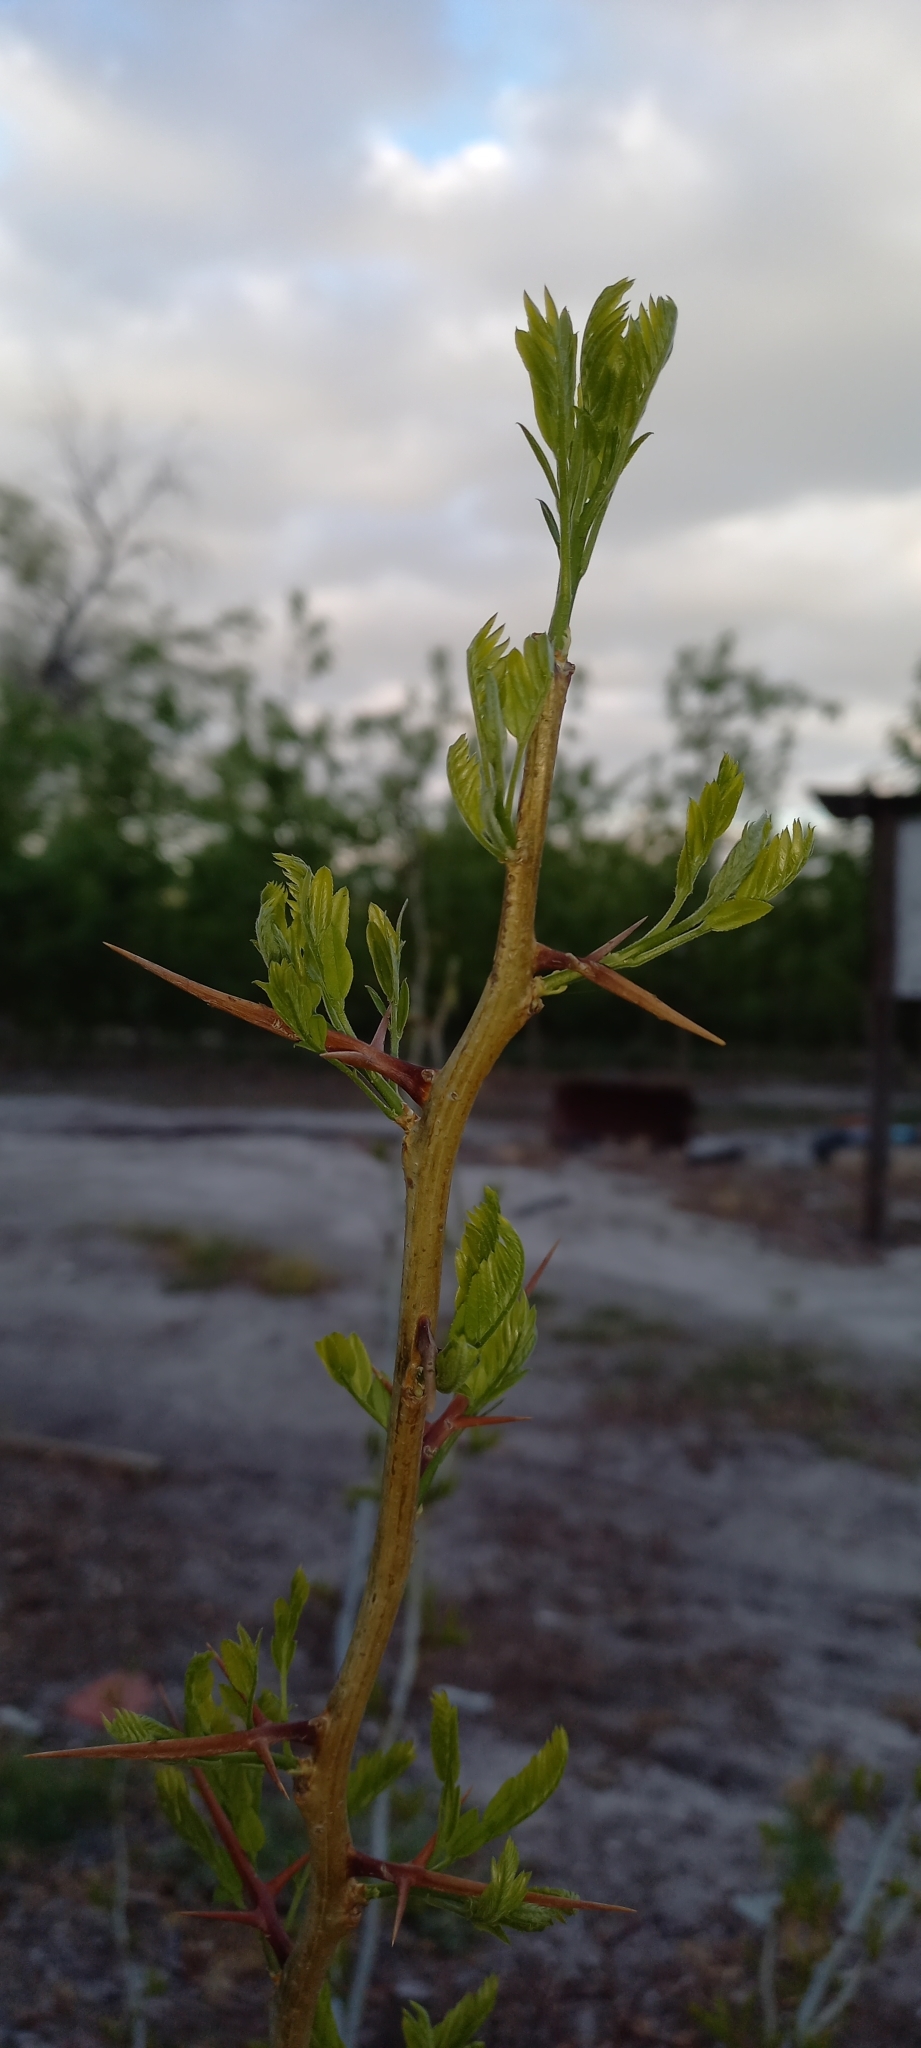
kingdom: Plantae
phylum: Tracheophyta
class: Magnoliopsida
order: Fabales
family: Fabaceae
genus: Gleditsia
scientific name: Gleditsia triacanthos
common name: Common honeylocust
